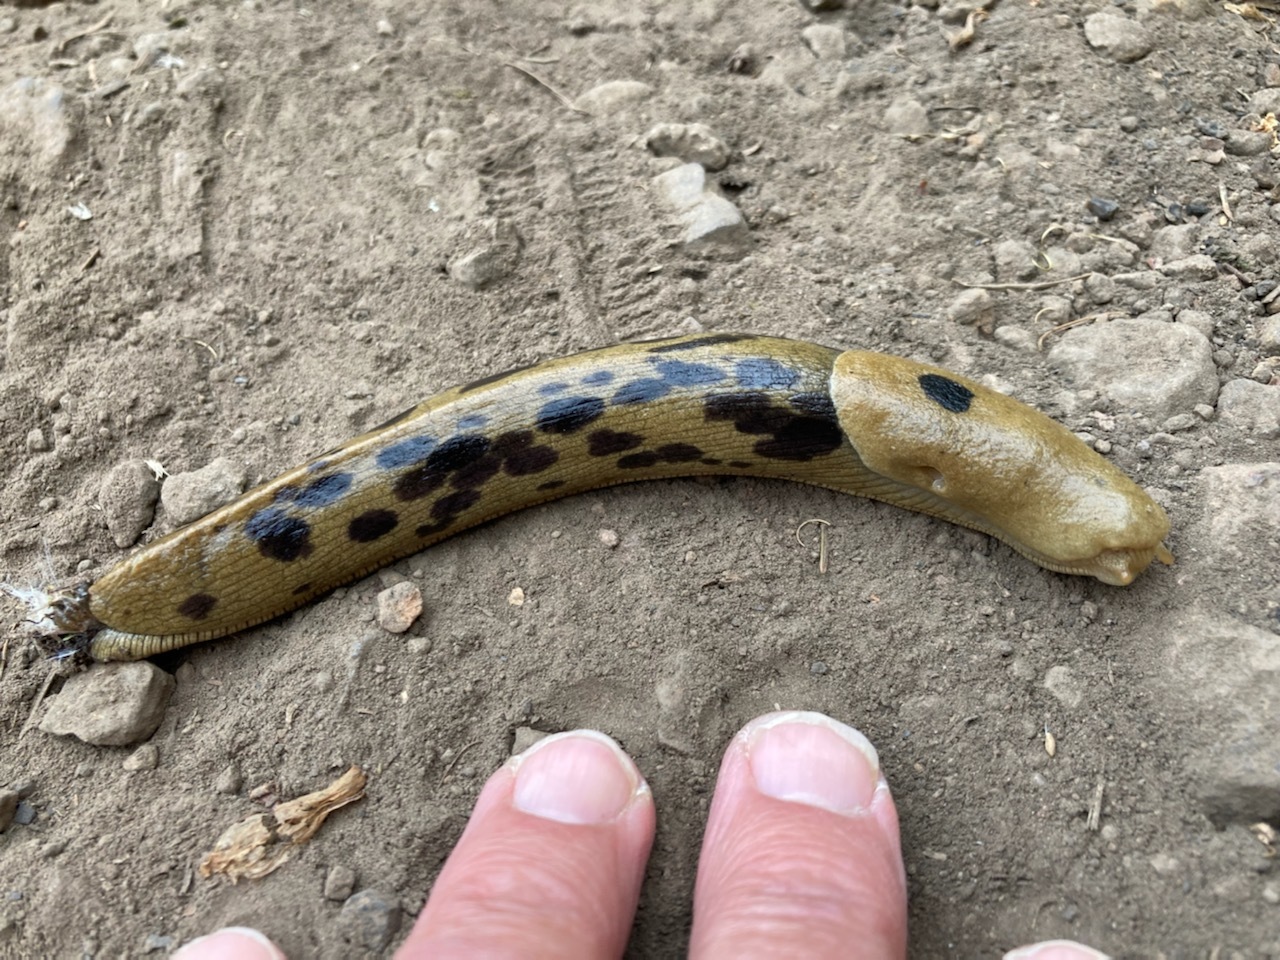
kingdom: Animalia
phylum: Mollusca
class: Gastropoda
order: Stylommatophora
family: Ariolimacidae
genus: Ariolimax
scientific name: Ariolimax columbianus
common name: Pacific banana slug
